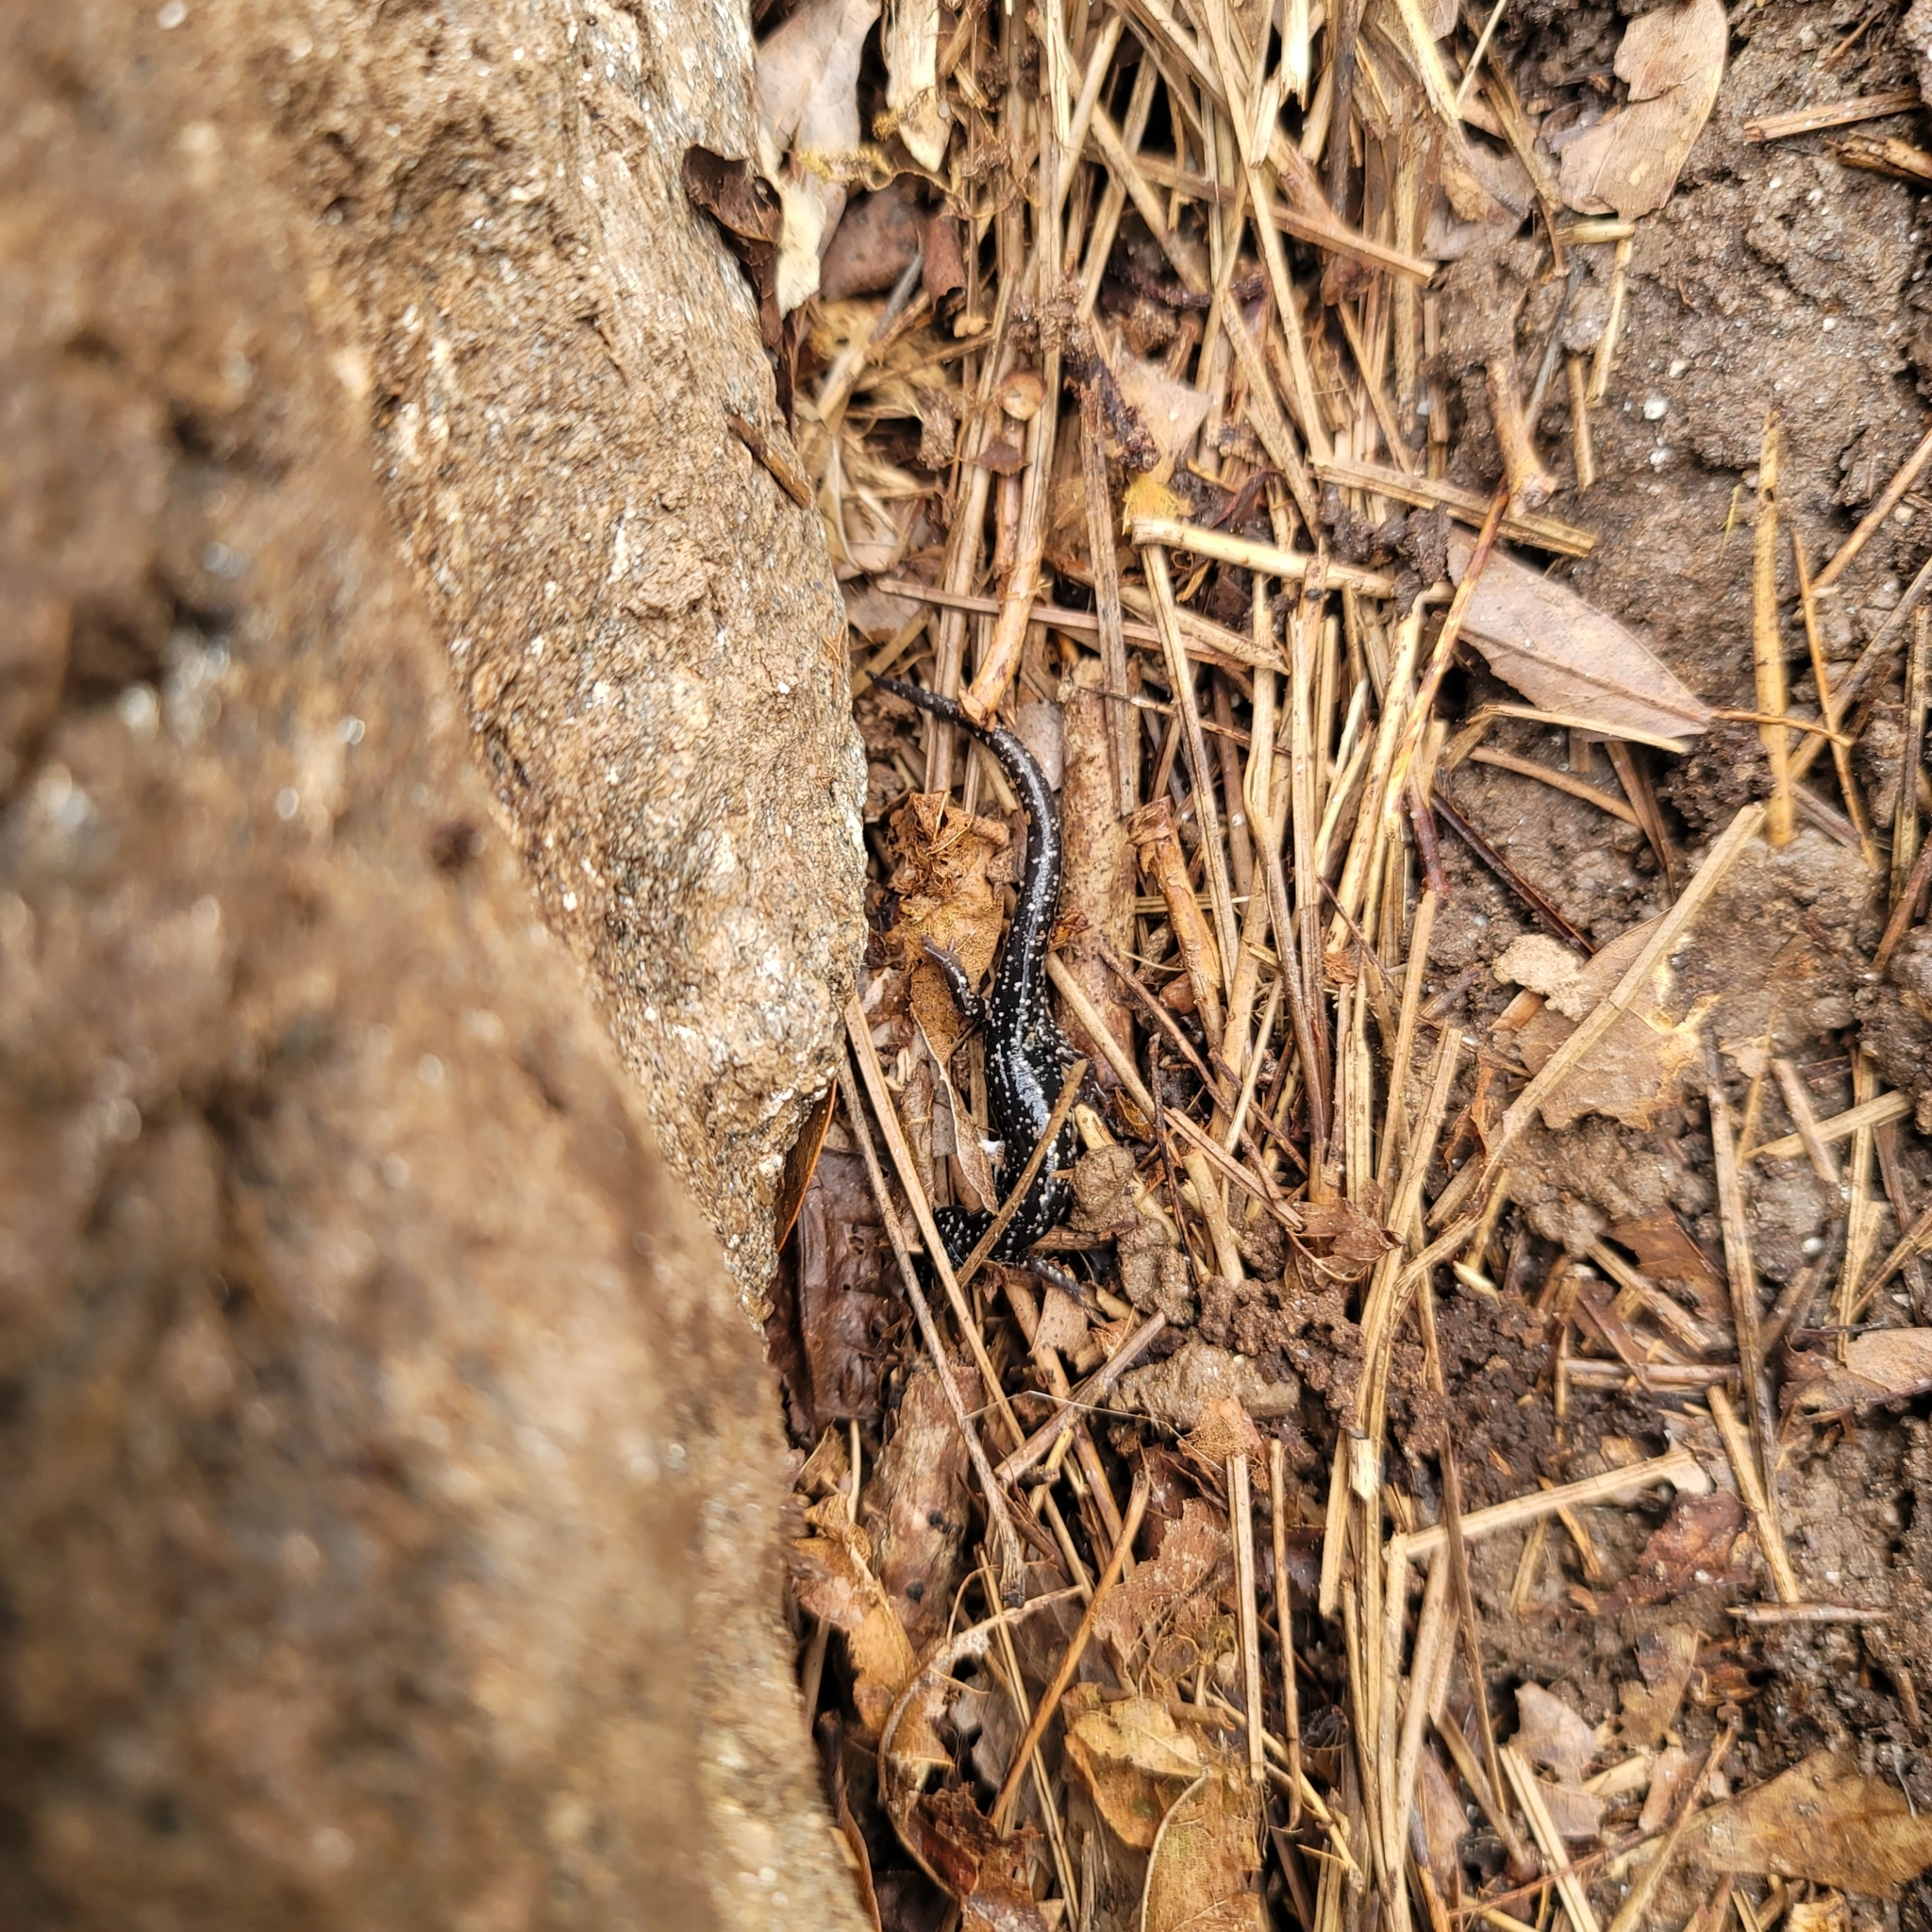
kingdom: Animalia
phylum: Chordata
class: Amphibia
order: Caudata
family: Plethodontidae
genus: Plethodon
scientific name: Plethodon glutinosus
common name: Northern slimy salamander
